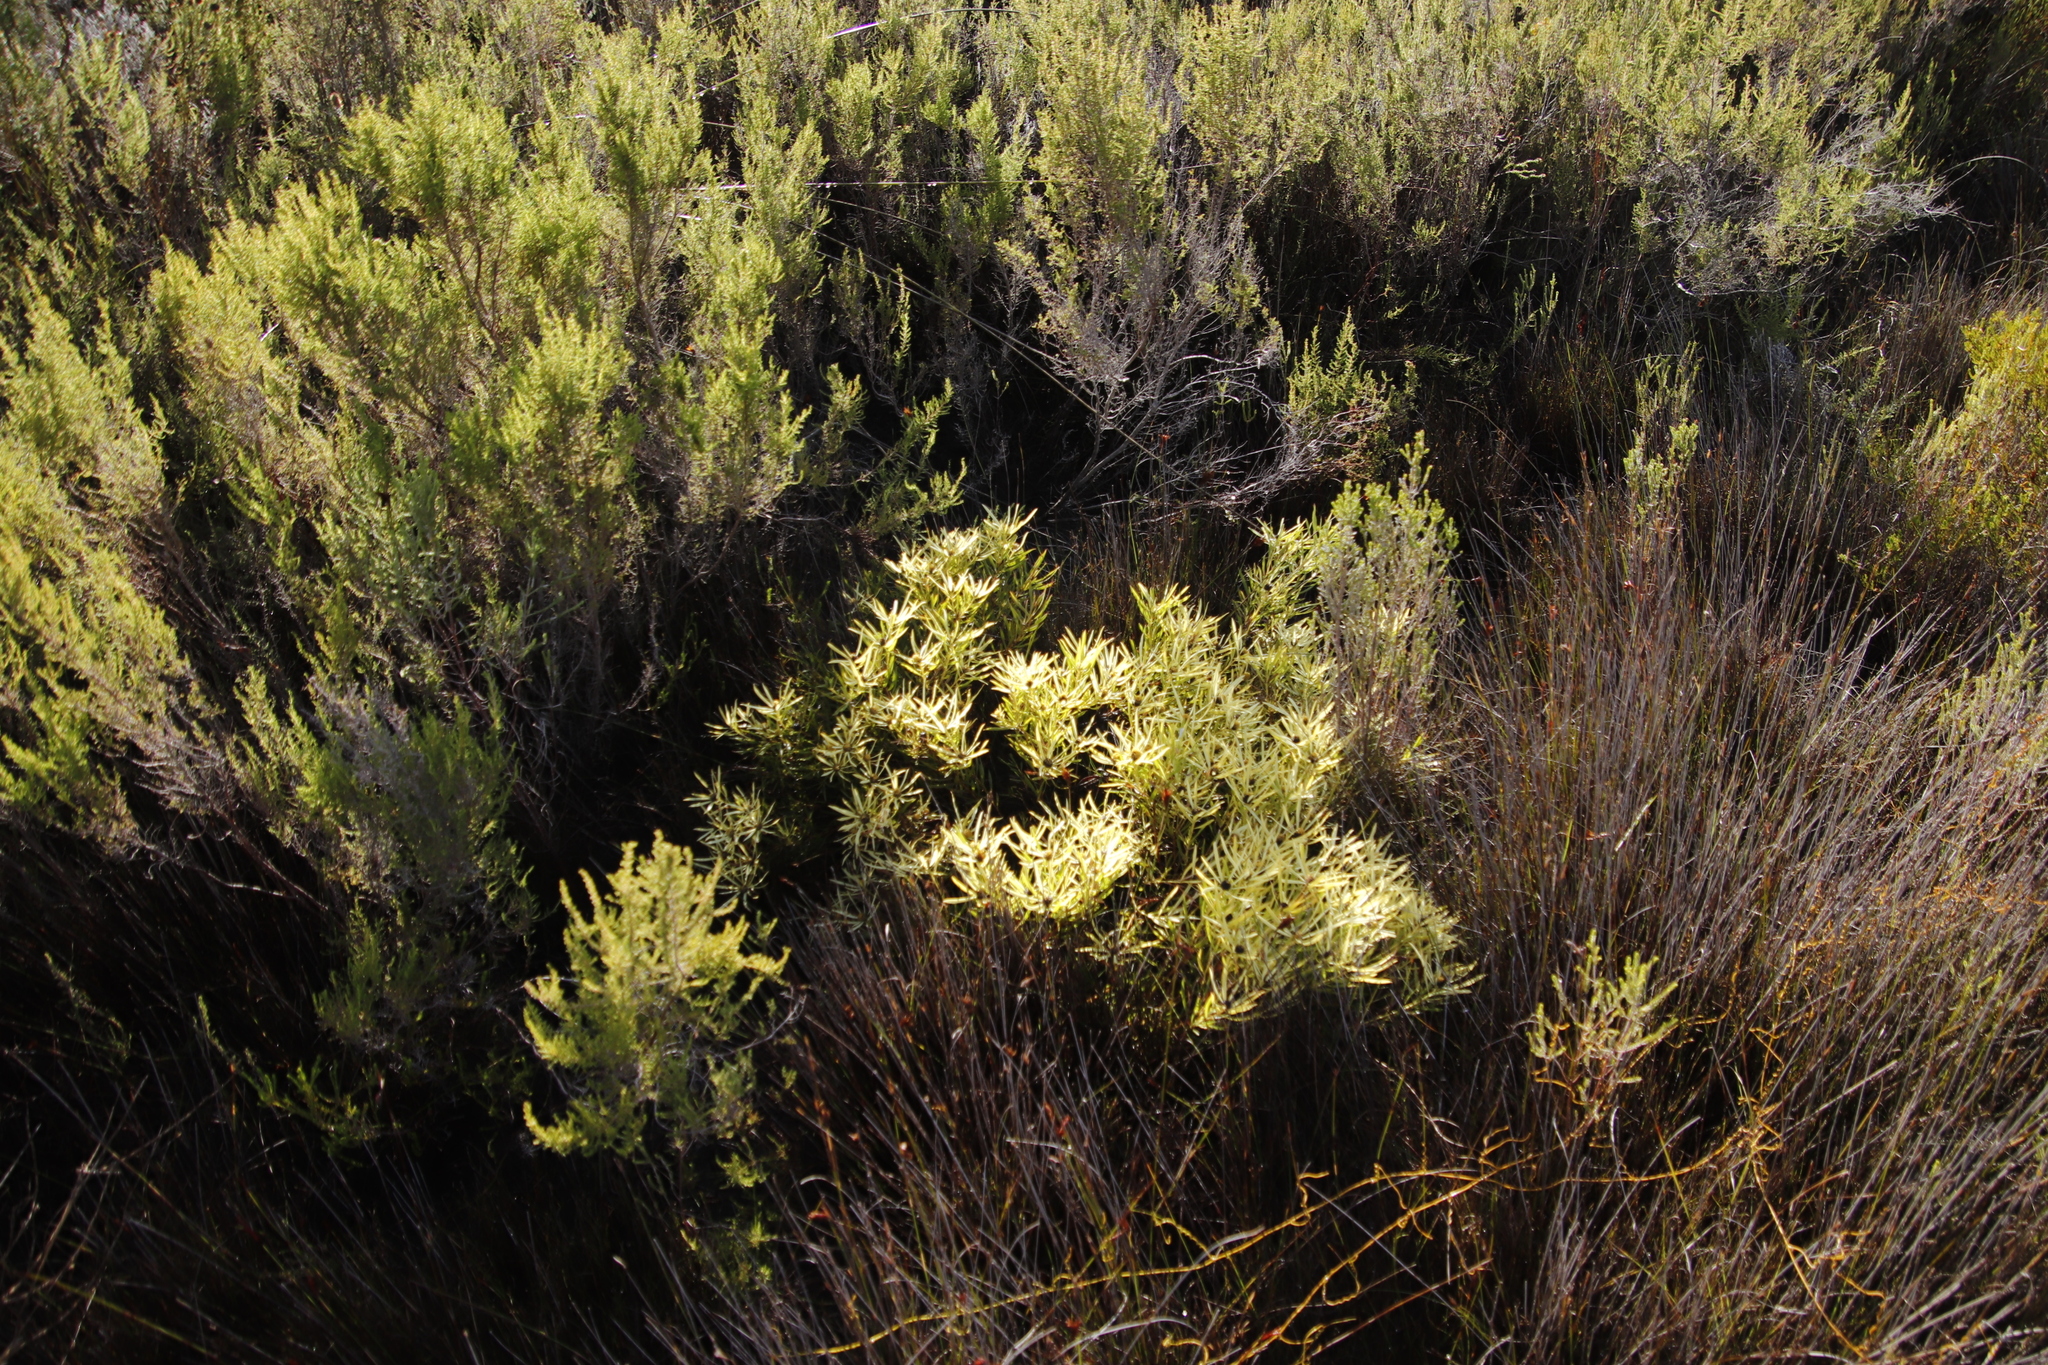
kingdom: Plantae
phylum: Tracheophyta
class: Magnoliopsida
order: Proteales
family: Proteaceae
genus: Leucadendron
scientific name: Leucadendron salignum
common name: Common sunshine conebush
